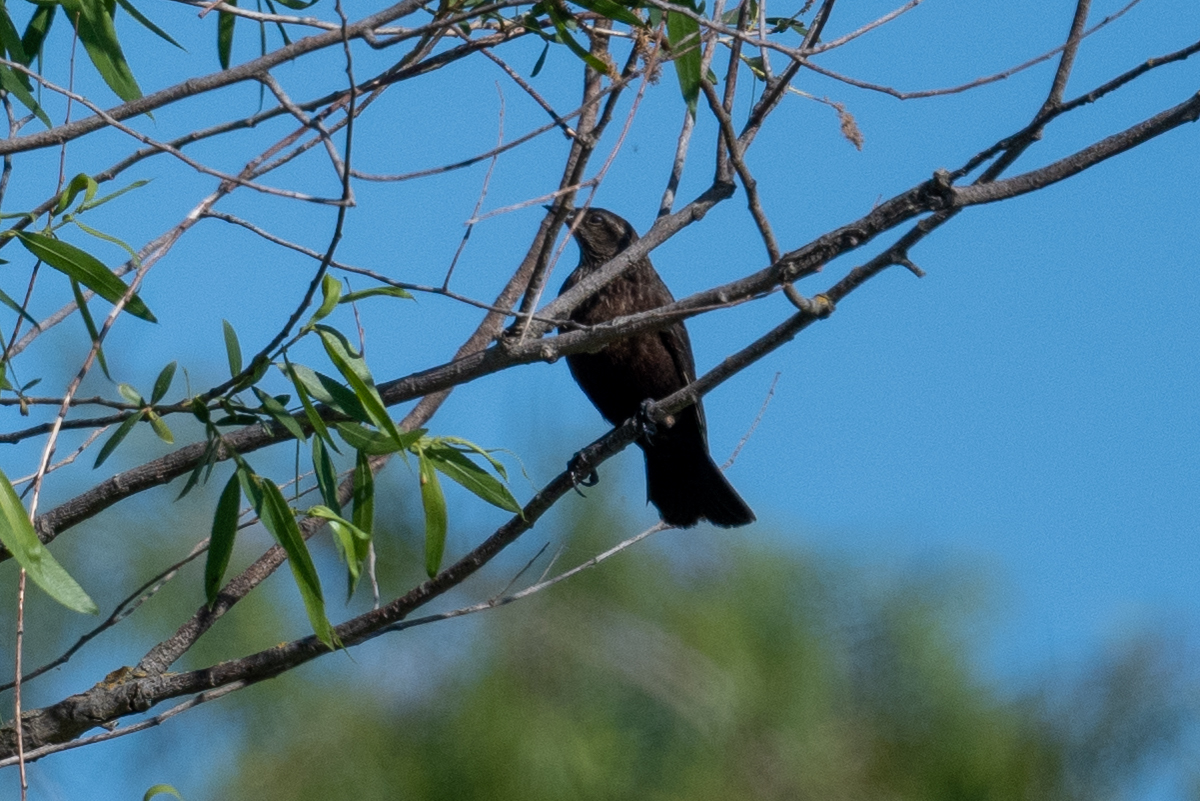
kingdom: Animalia
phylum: Chordata
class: Aves
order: Passeriformes
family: Icteridae
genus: Agelaius
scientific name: Agelaius phoeniceus
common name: Red-winged blackbird
